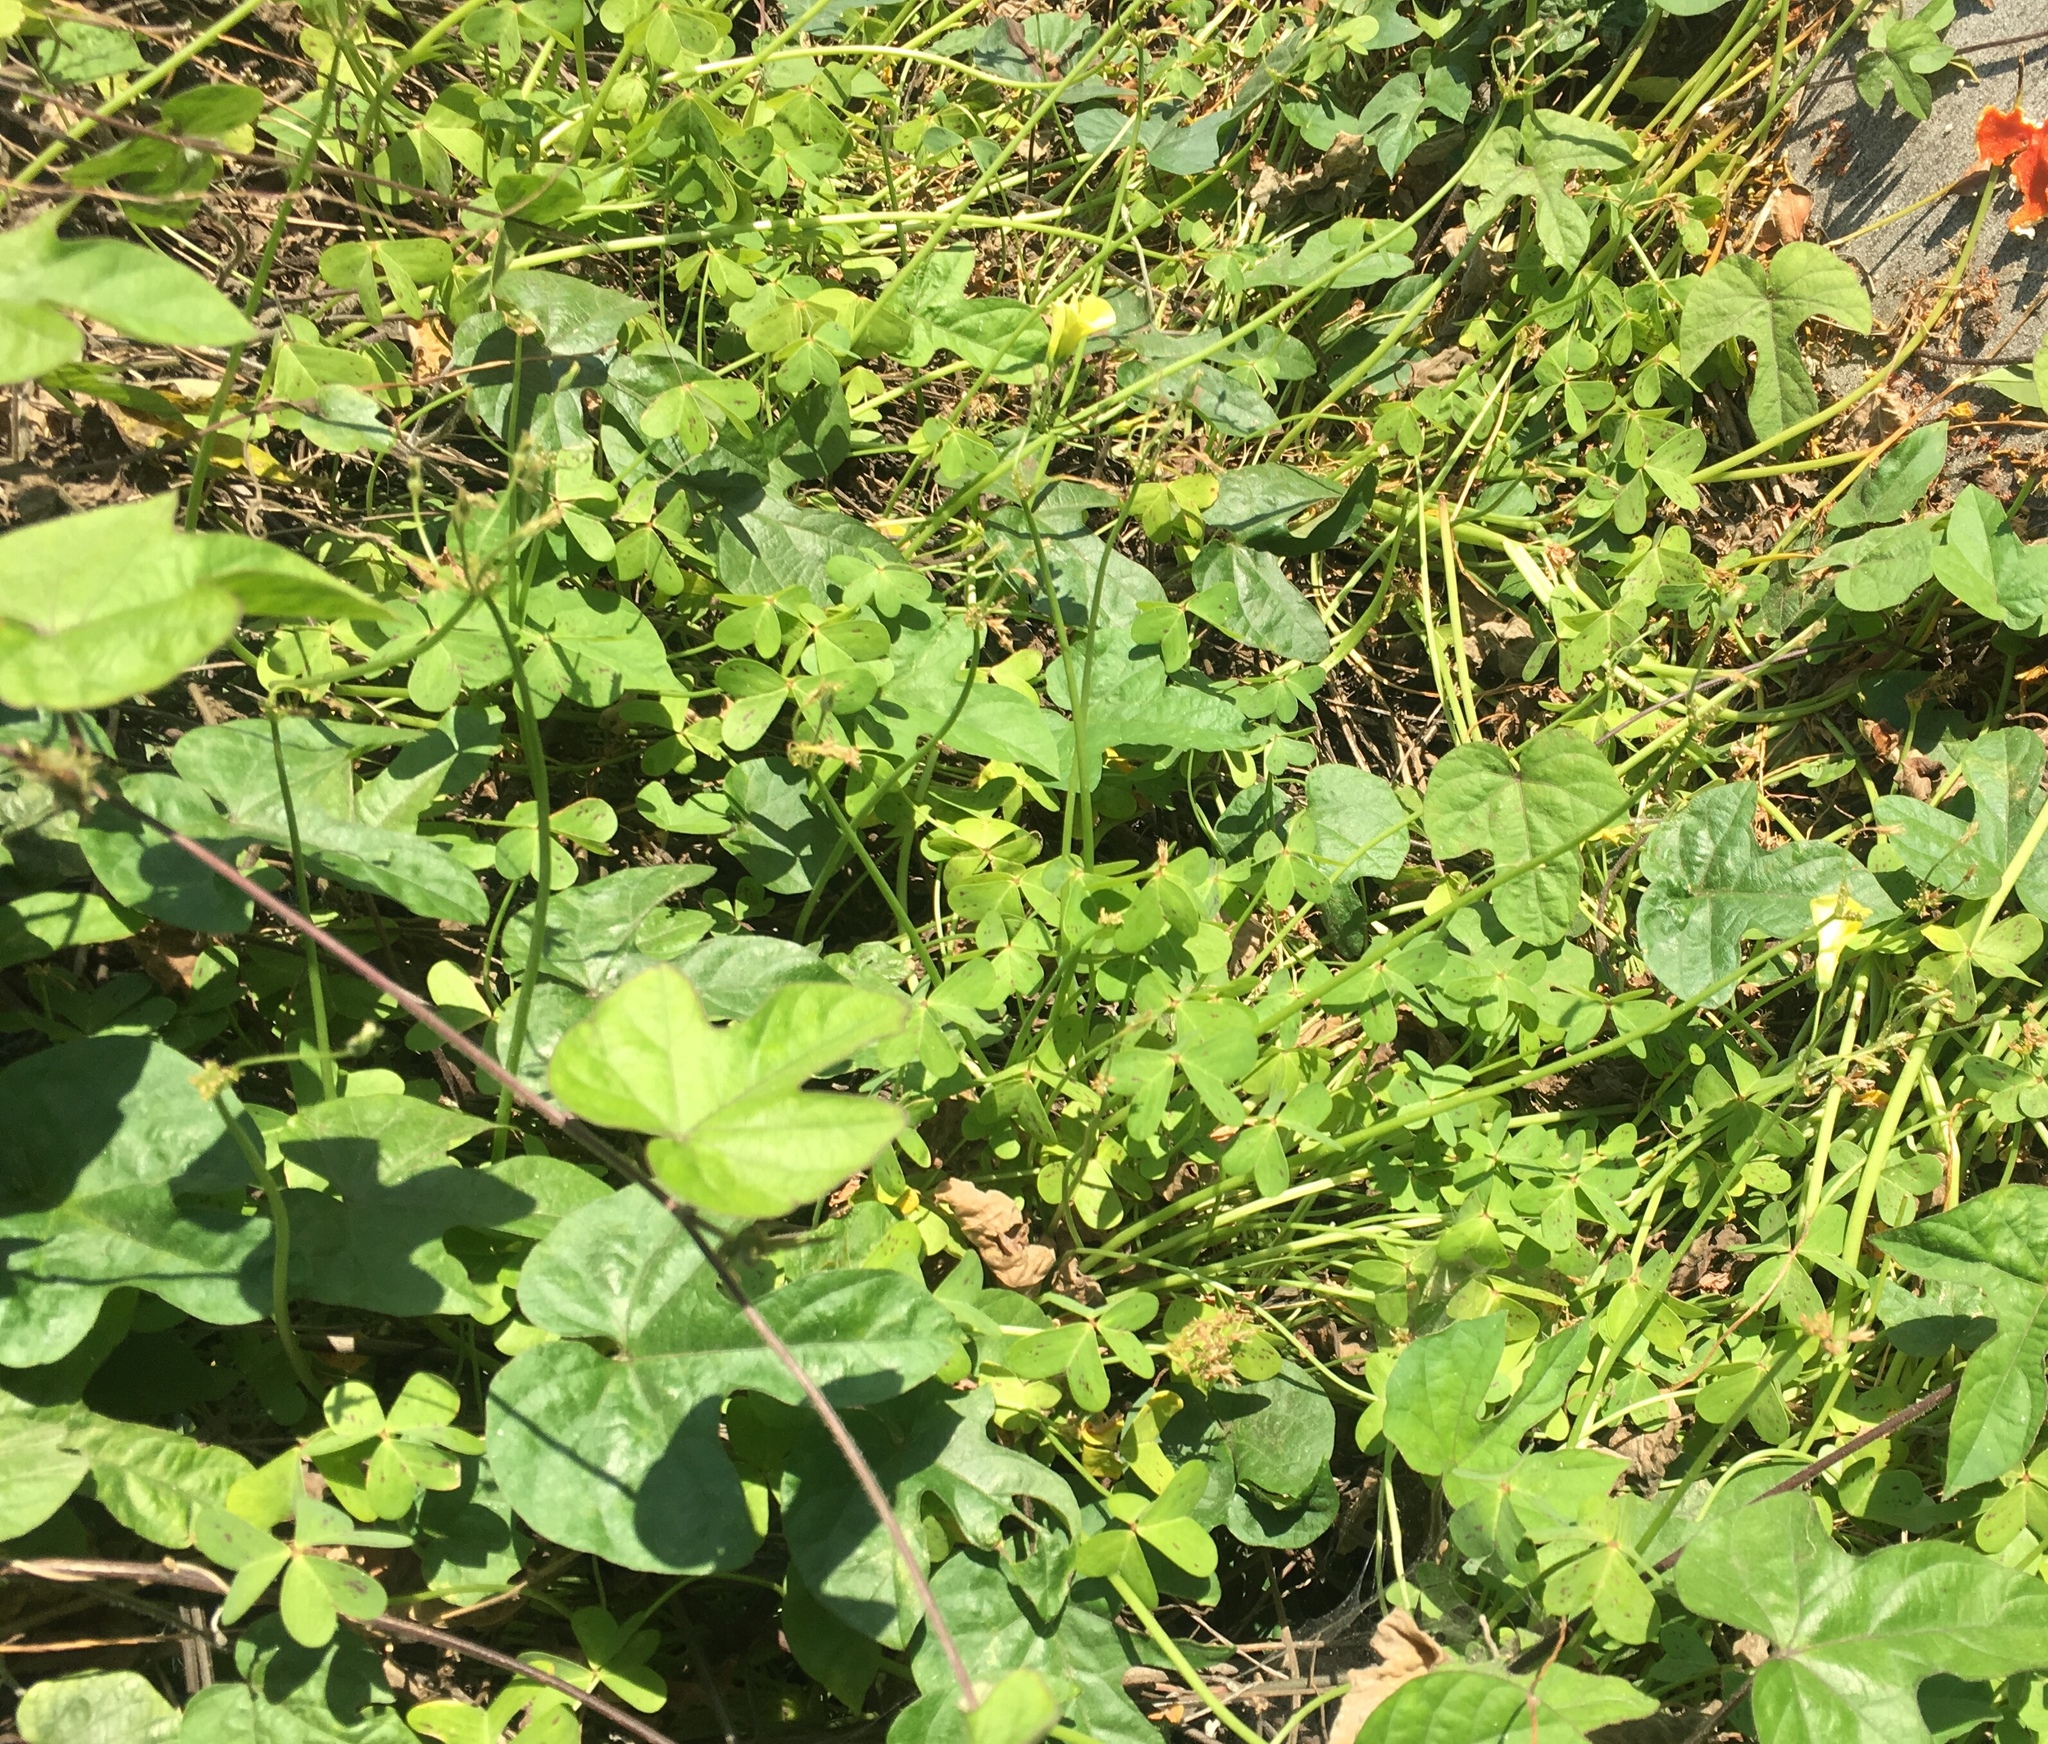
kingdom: Plantae
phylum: Tracheophyta
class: Magnoliopsida
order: Oxalidales
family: Oxalidaceae
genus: Oxalis
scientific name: Oxalis pes-caprae
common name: Bermuda-buttercup
